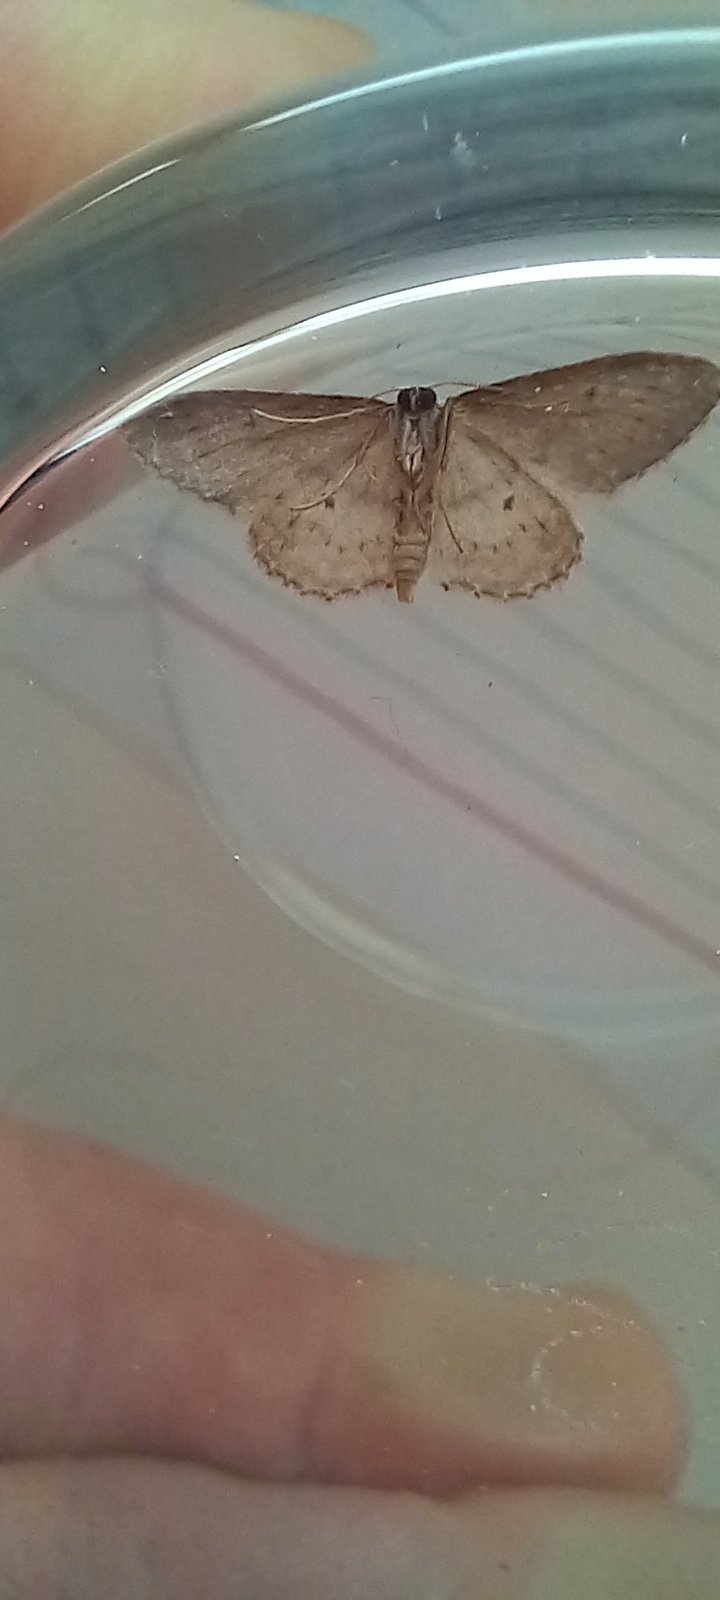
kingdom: Animalia
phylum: Arthropoda
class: Insecta
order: Lepidoptera
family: Geometridae
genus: Idaea
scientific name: Idaea seriata
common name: Small dusty wave
